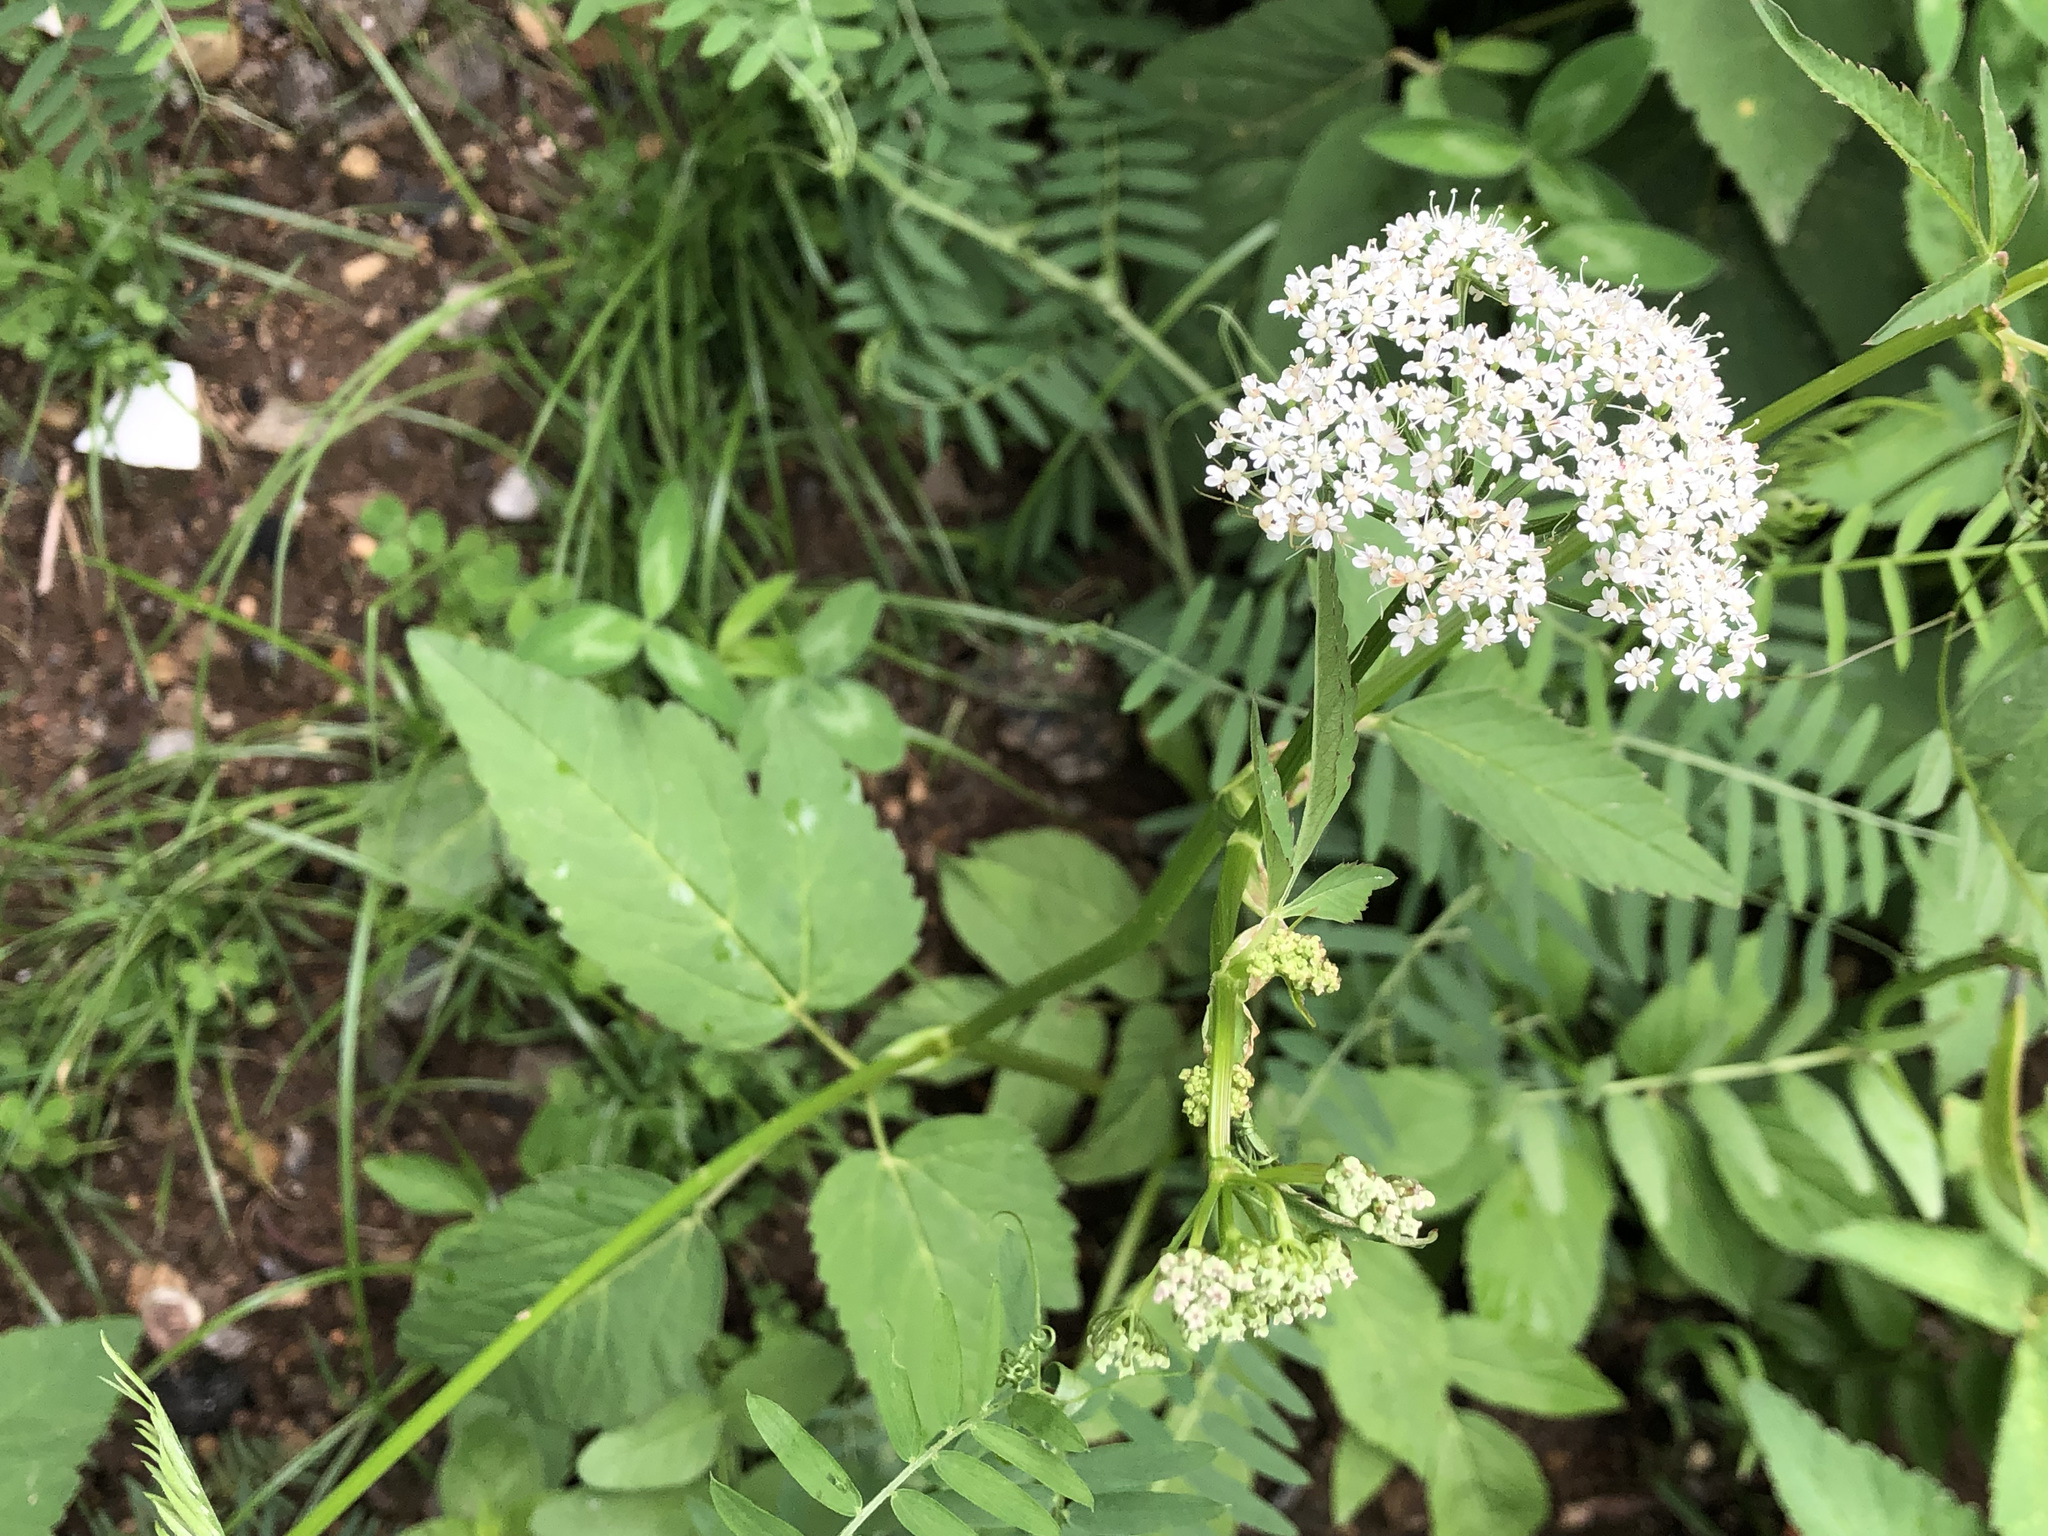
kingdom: Plantae
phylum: Tracheophyta
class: Magnoliopsida
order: Apiales
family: Apiaceae
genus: Aegopodium
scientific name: Aegopodium podagraria
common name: Ground-elder
